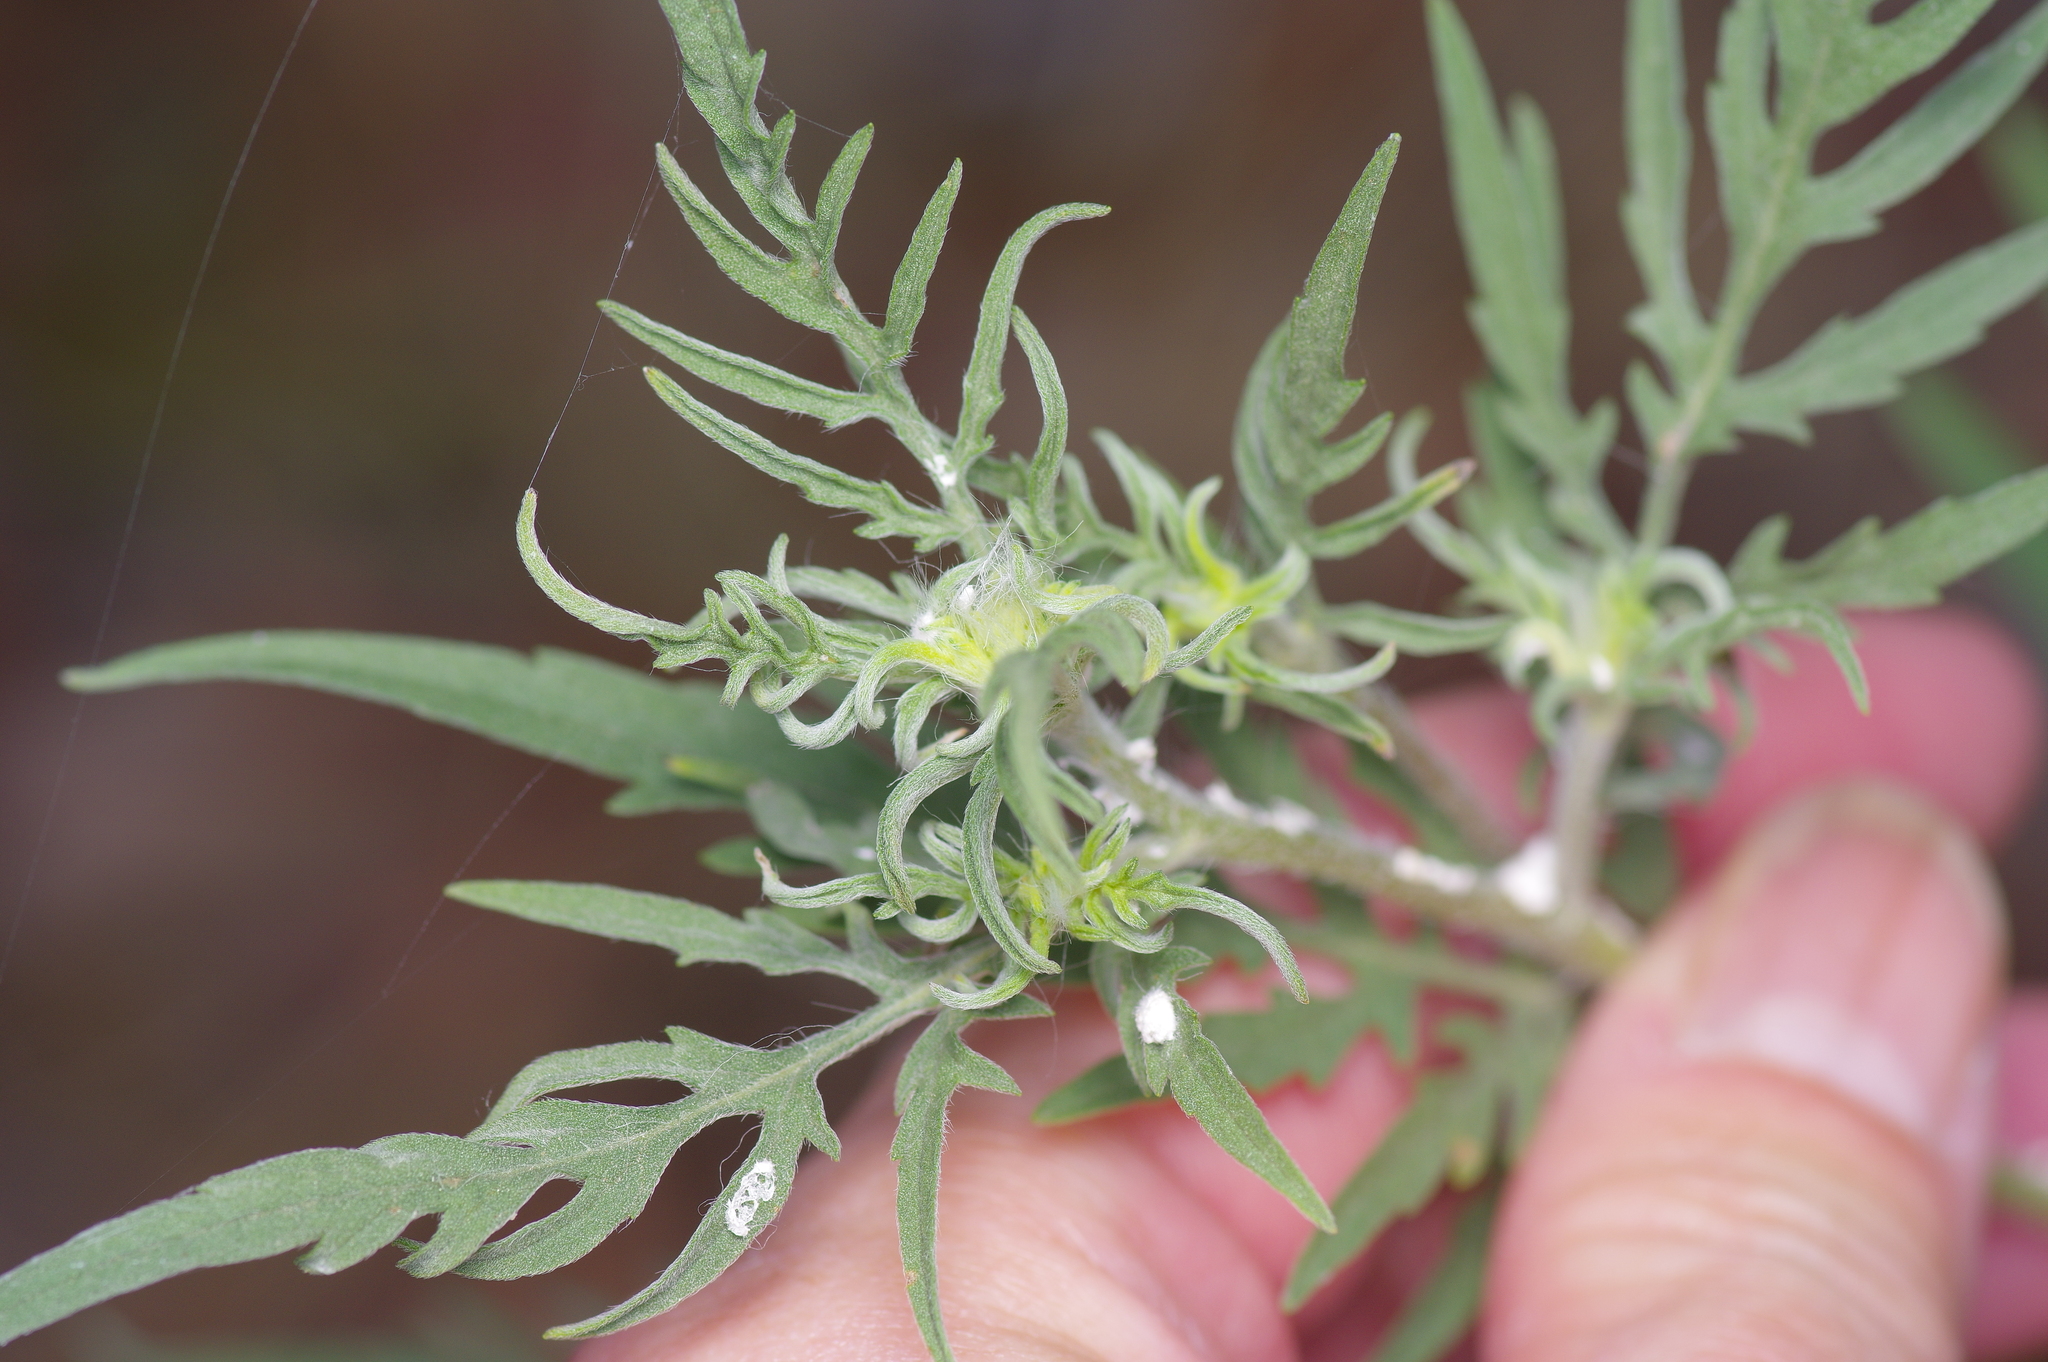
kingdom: Plantae
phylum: Tracheophyta
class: Magnoliopsida
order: Asterales
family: Asteraceae
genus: Ambrosia
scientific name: Ambrosia psilostachya
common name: Perennial ragweed
